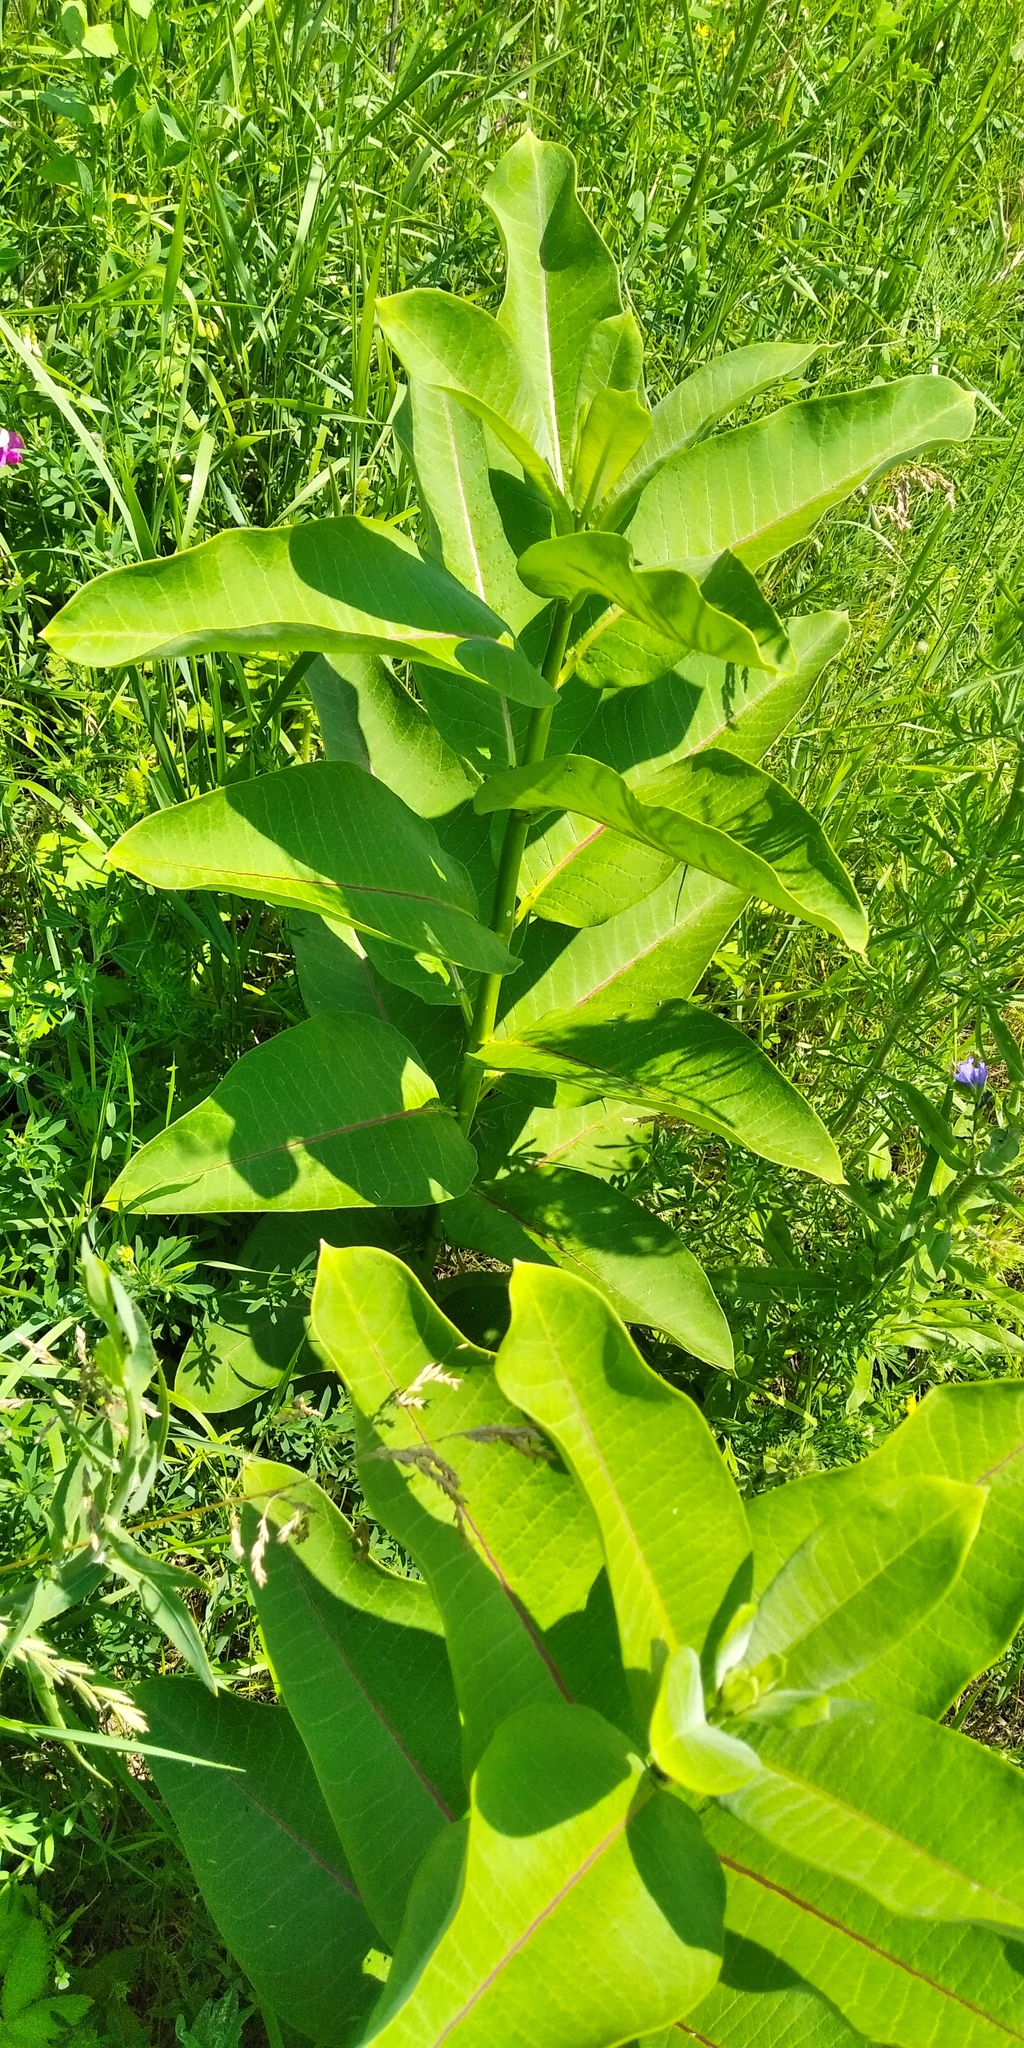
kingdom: Plantae
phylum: Tracheophyta
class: Magnoliopsida
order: Gentianales
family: Apocynaceae
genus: Asclepias
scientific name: Asclepias syriaca
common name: Common milkweed
